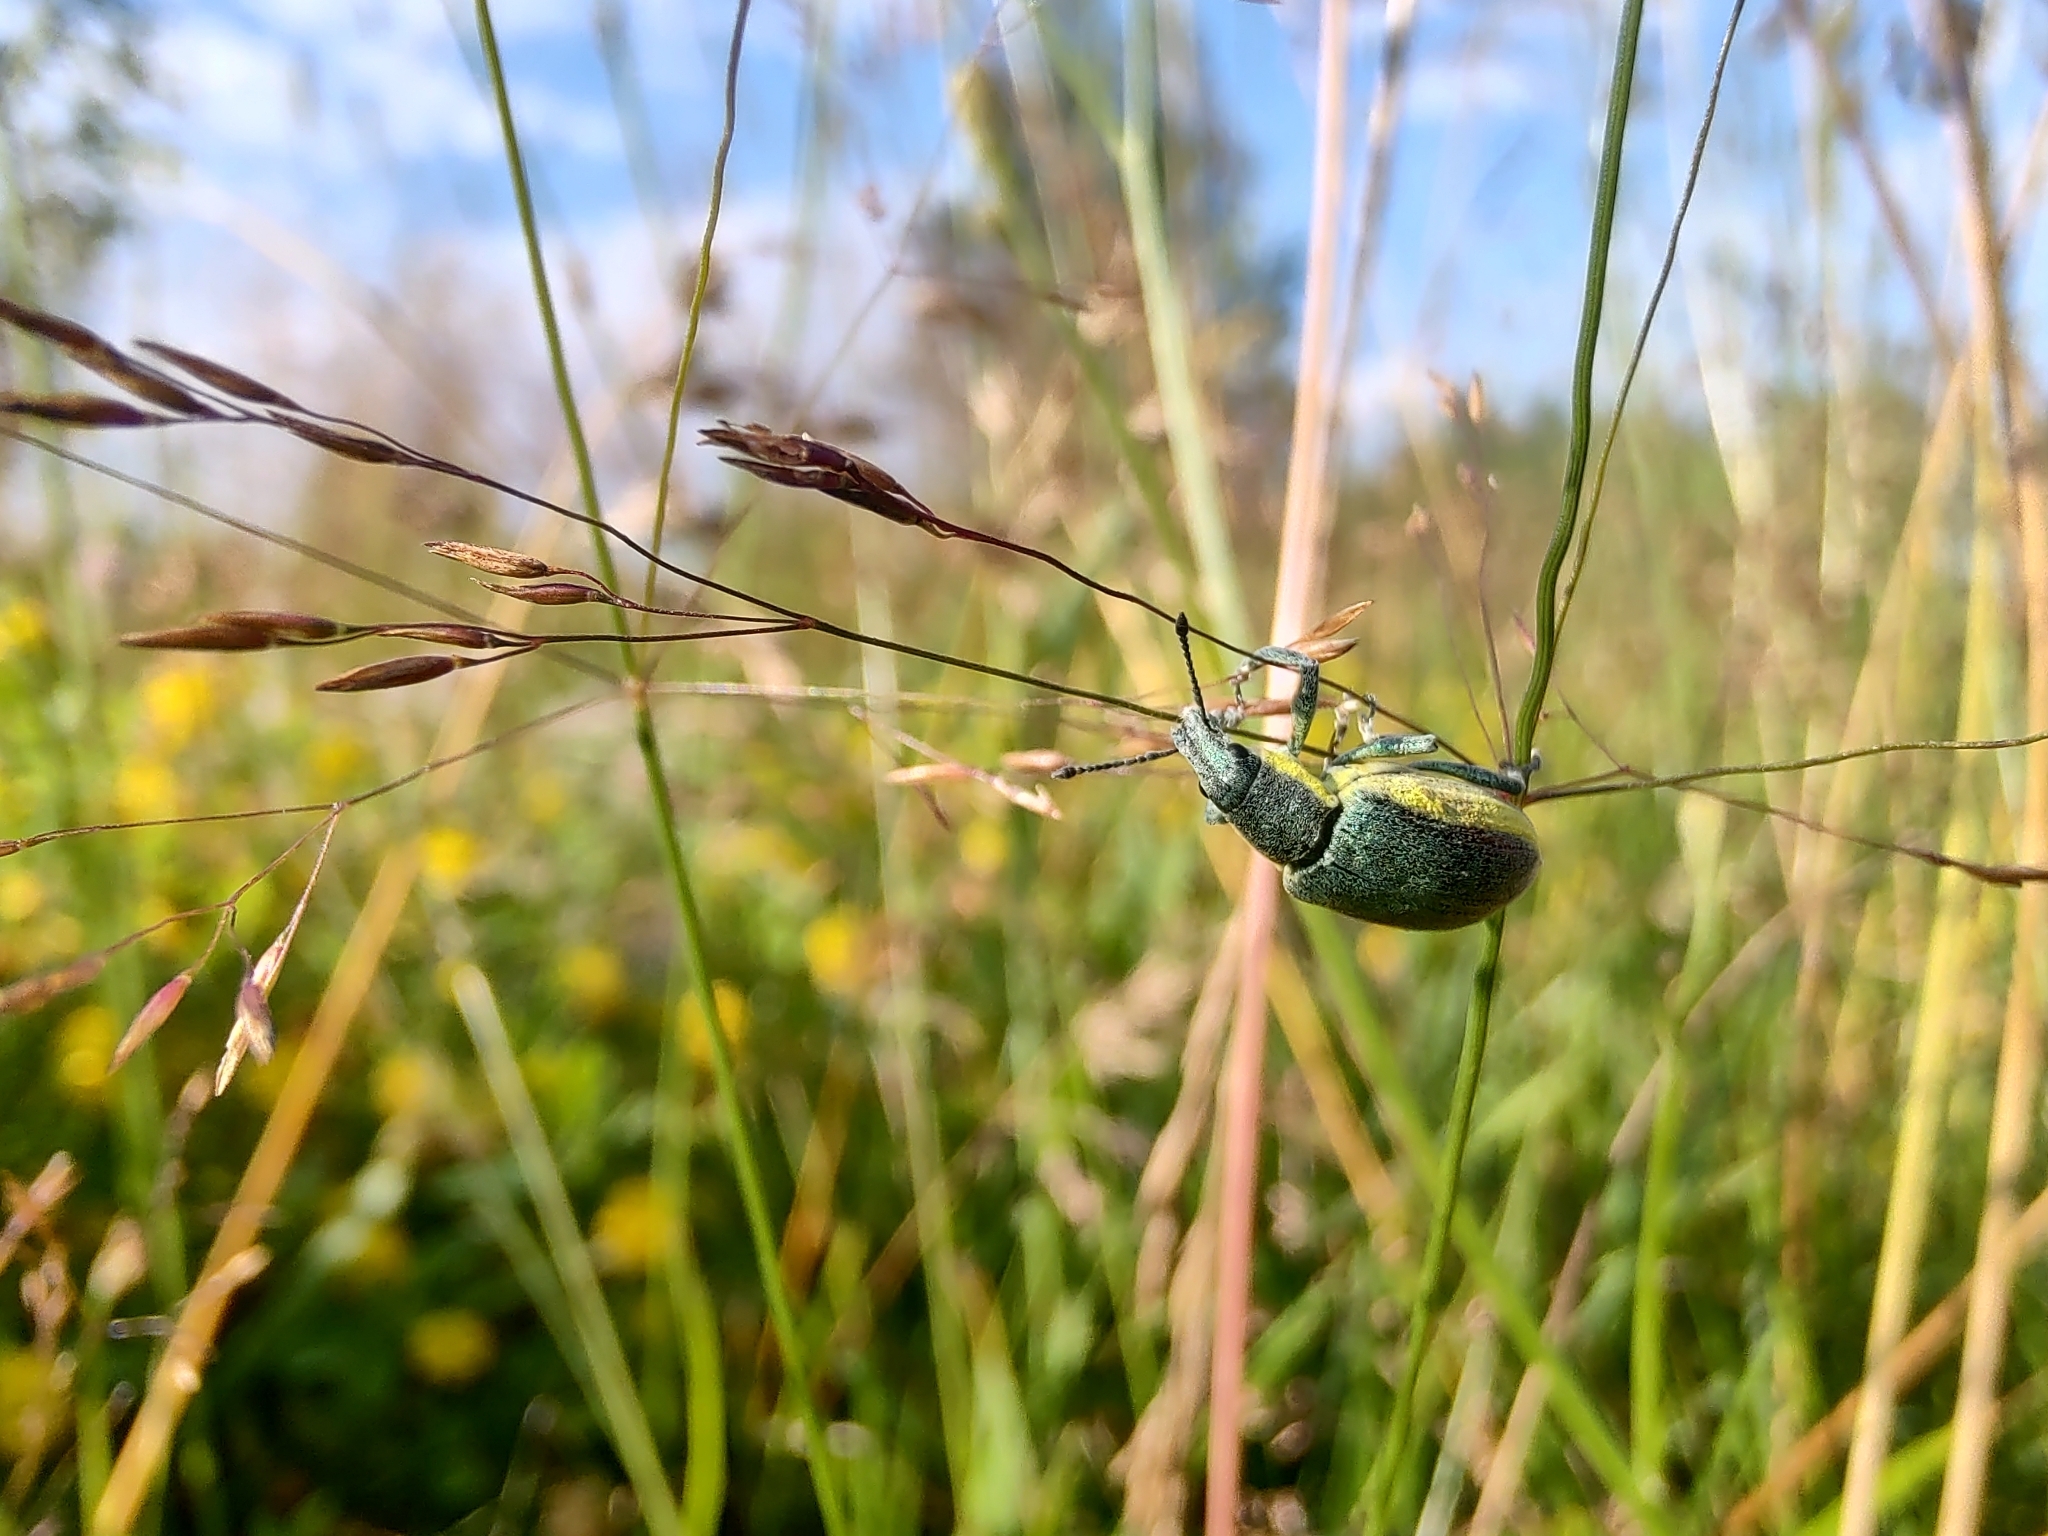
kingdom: Animalia
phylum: Arthropoda
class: Insecta
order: Coleoptera
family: Curculionidae
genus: Chlorophanus
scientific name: Chlorophanus viridis
